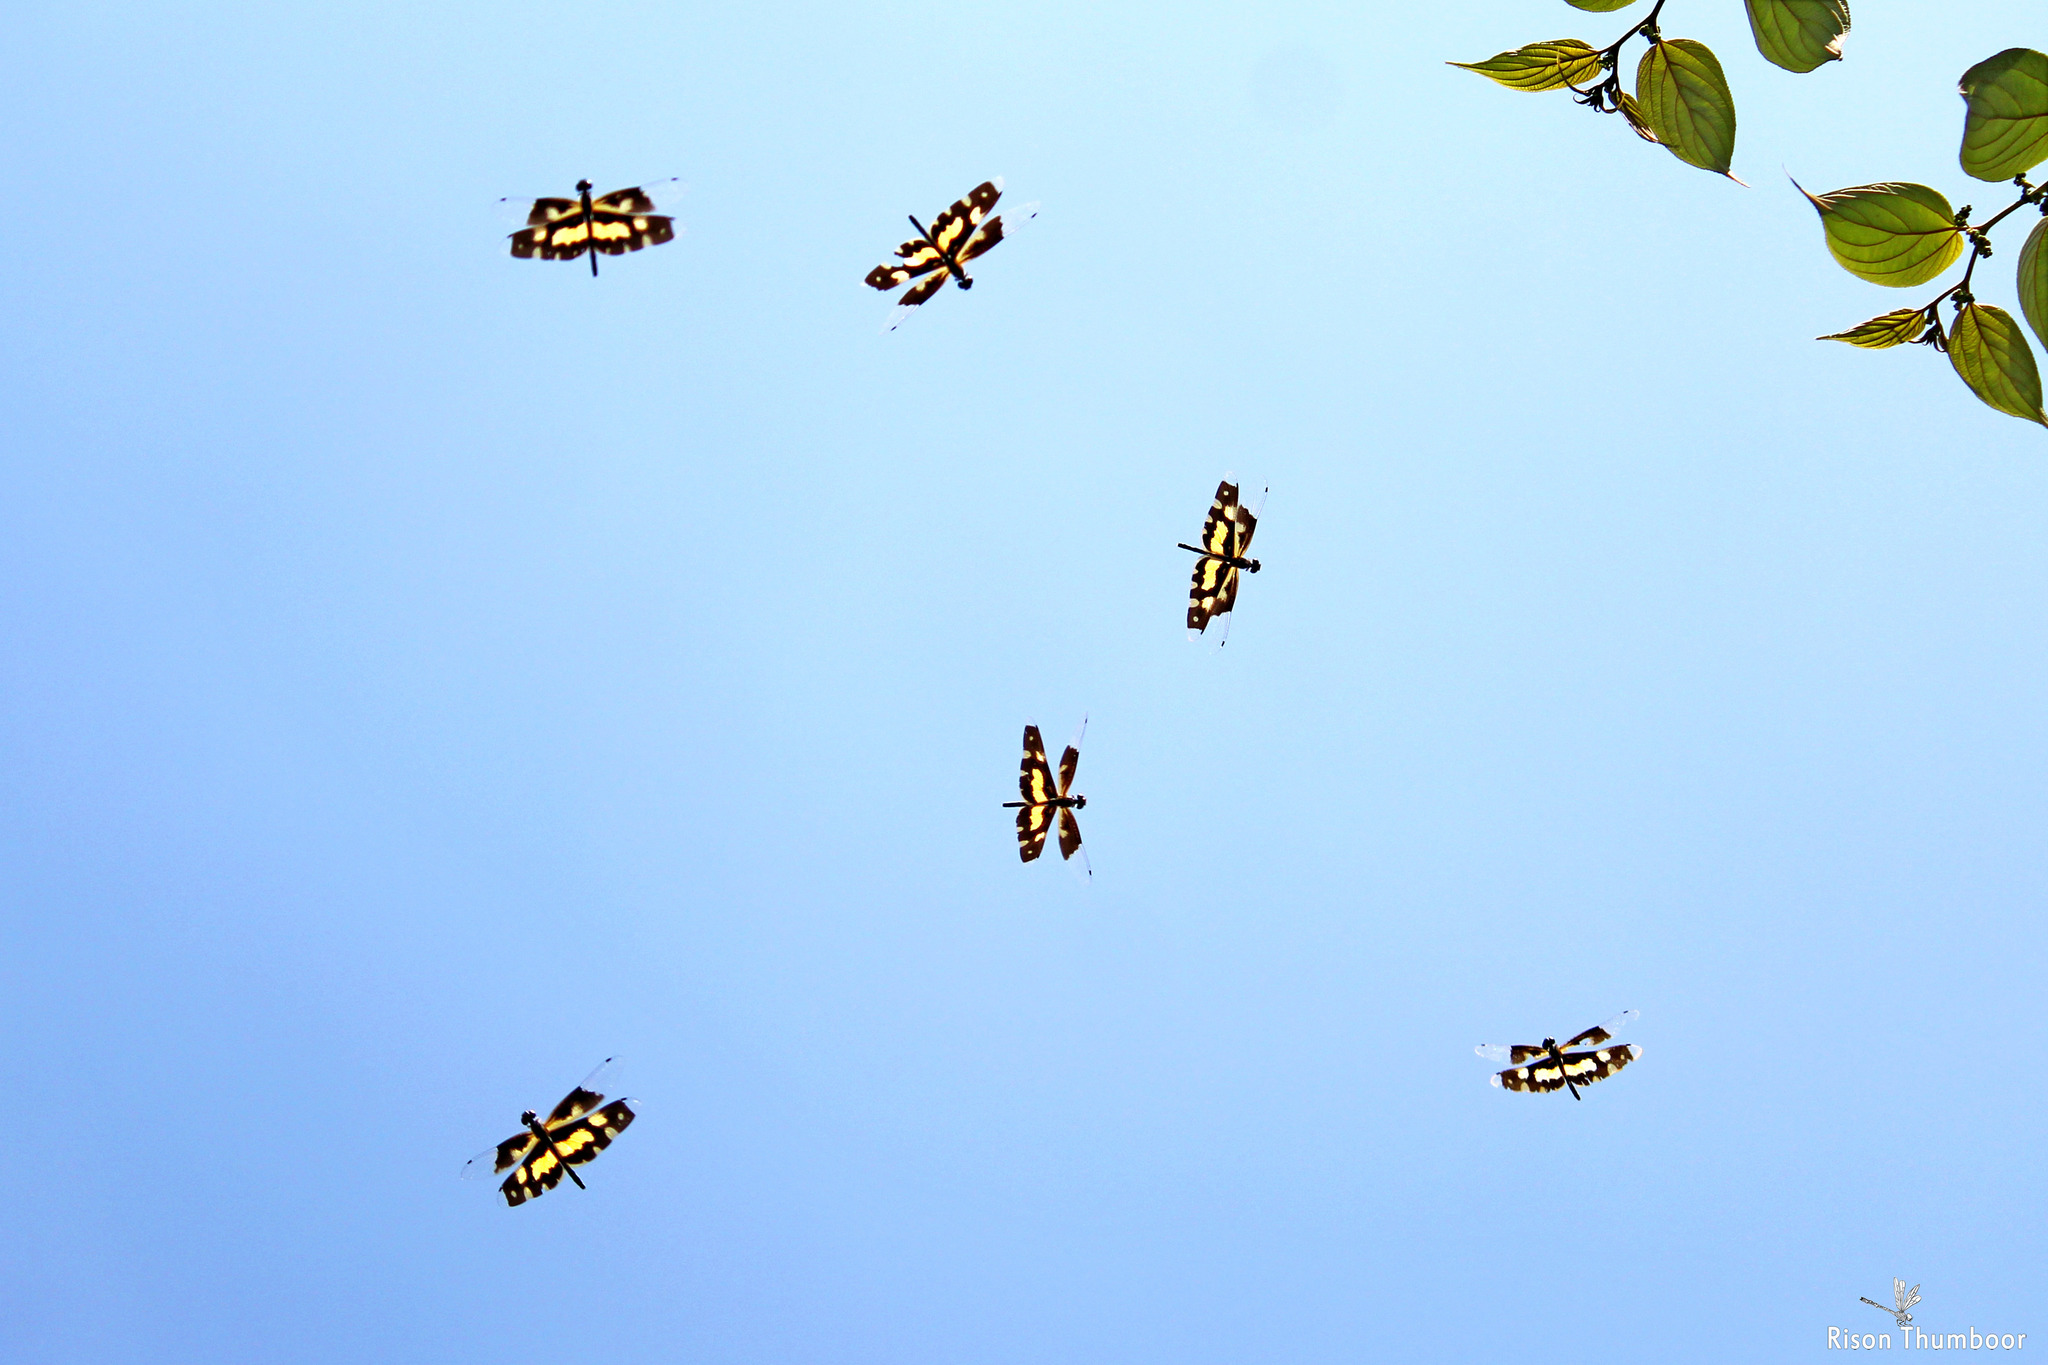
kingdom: Animalia
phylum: Arthropoda
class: Insecta
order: Odonata
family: Libellulidae
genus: Rhyothemis
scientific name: Rhyothemis variegata
